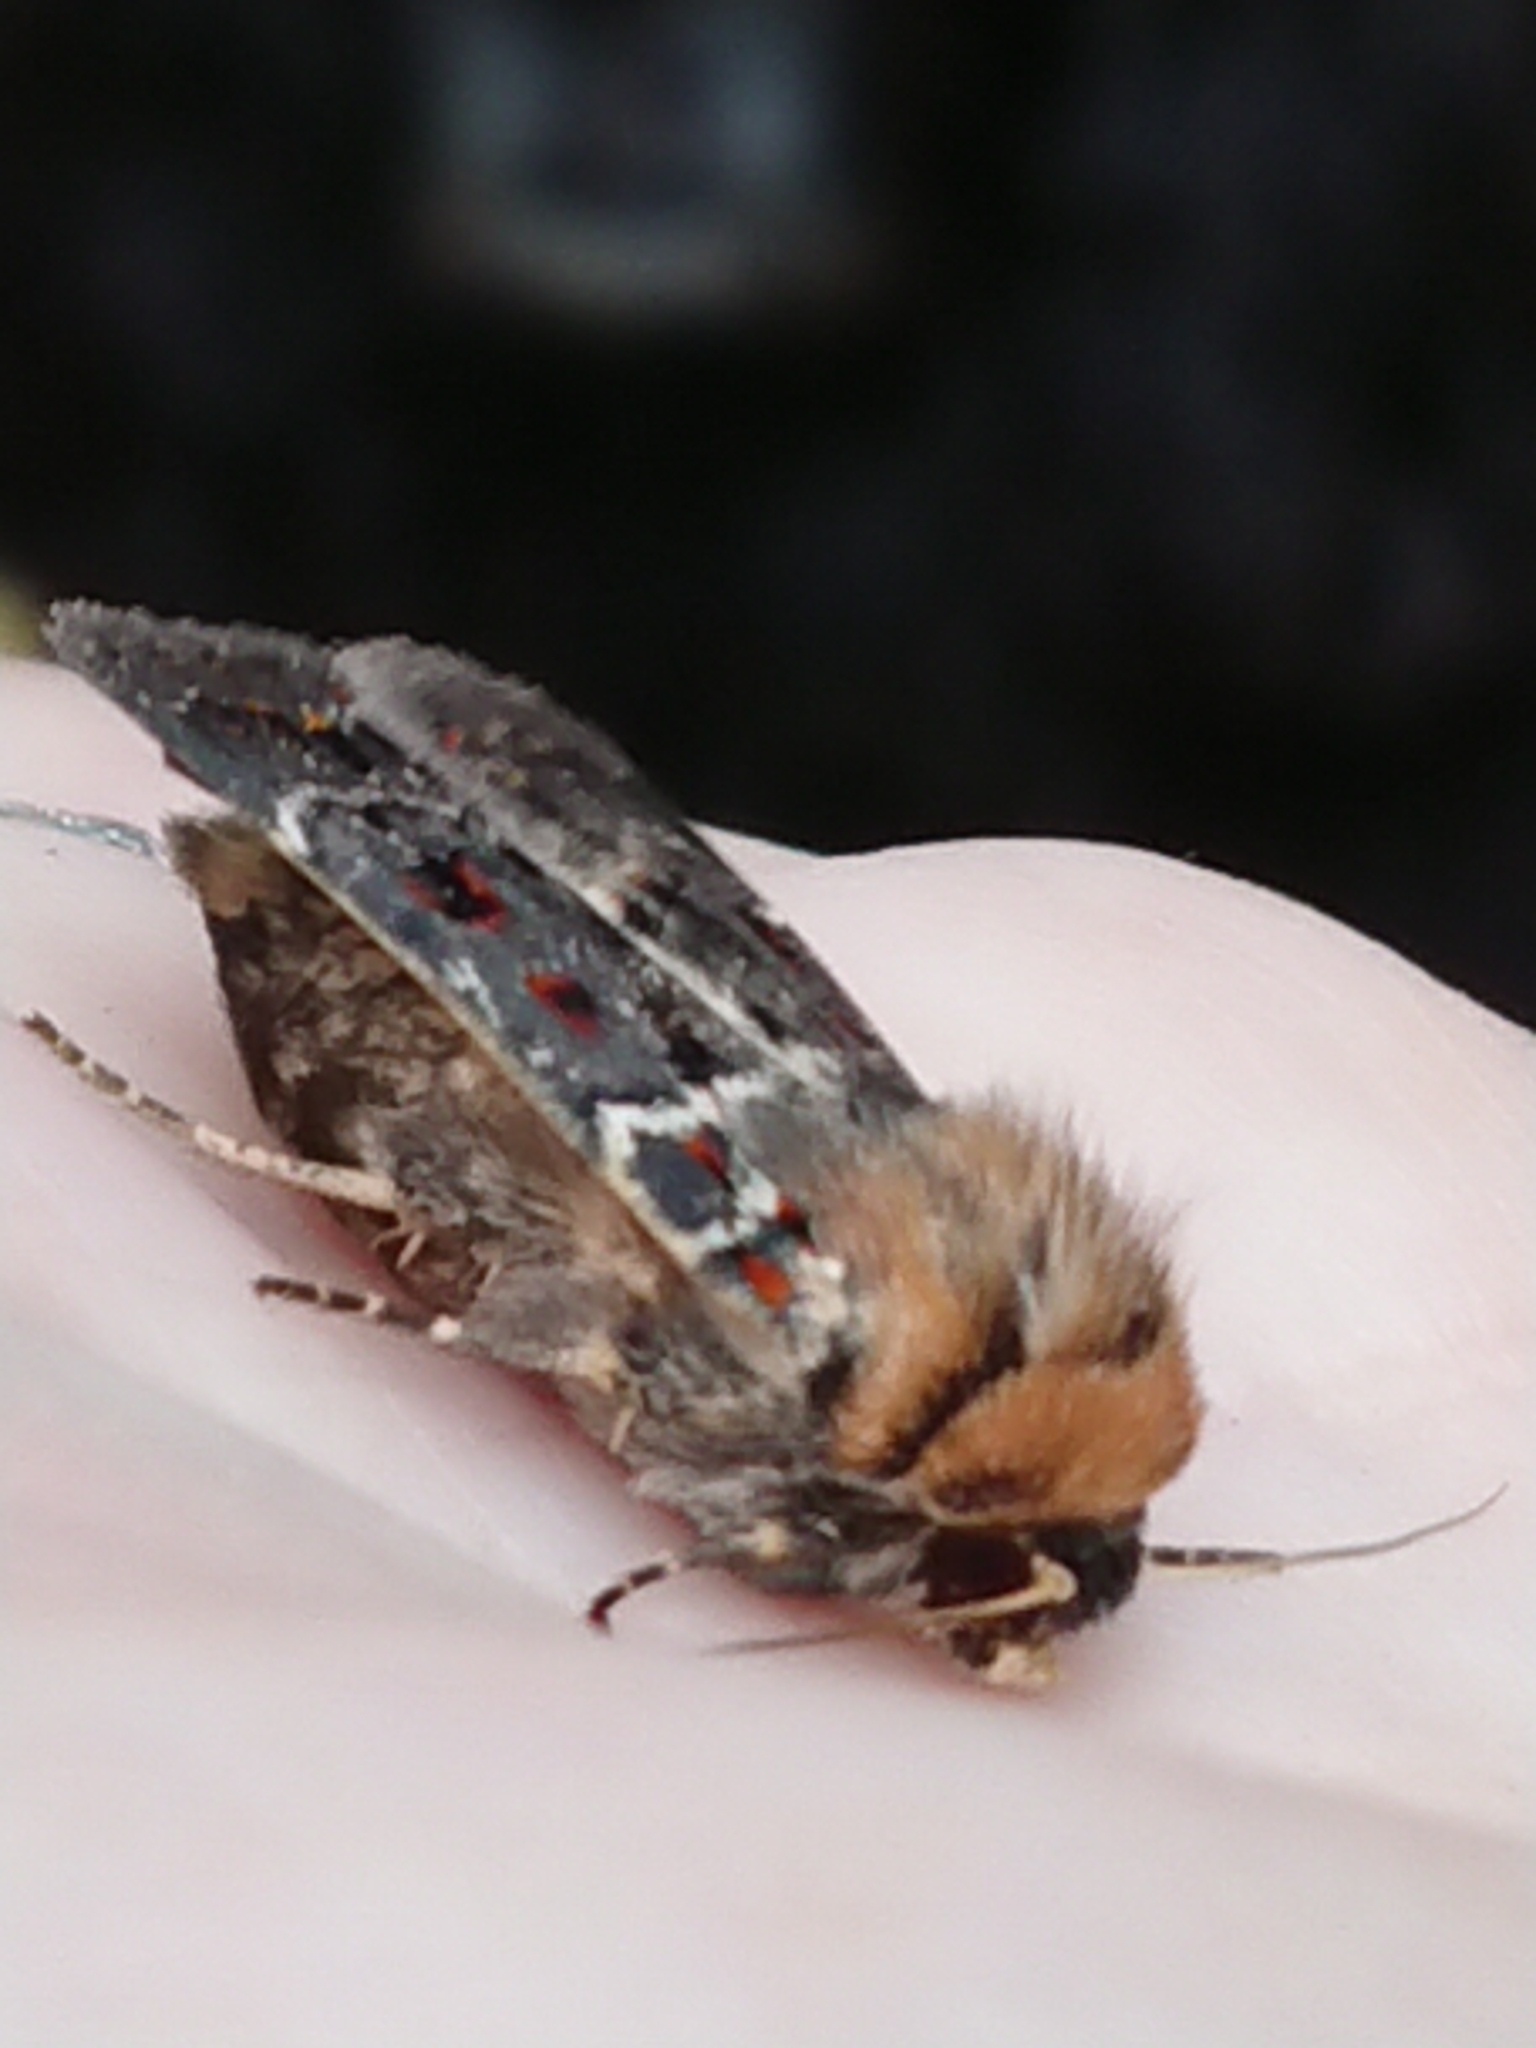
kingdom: Animalia
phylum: Arthropoda
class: Insecta
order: Lepidoptera
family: Noctuidae
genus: Proteuxoa
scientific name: Proteuxoa sanguinipuncta
